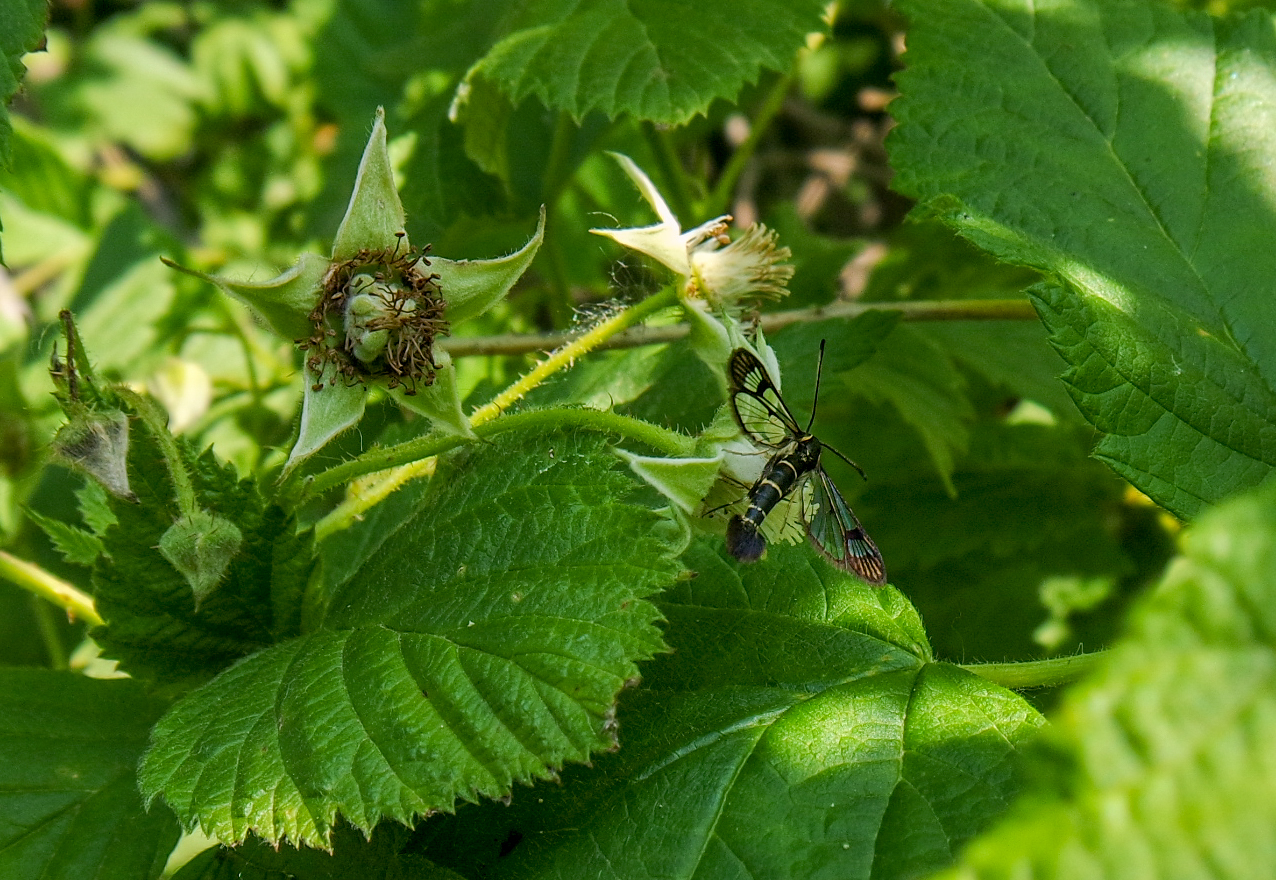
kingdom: Animalia
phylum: Arthropoda
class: Insecta
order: Lepidoptera
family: Sesiidae
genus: Synanthedon
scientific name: Synanthedon tipuliformis
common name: Currant clearwing
